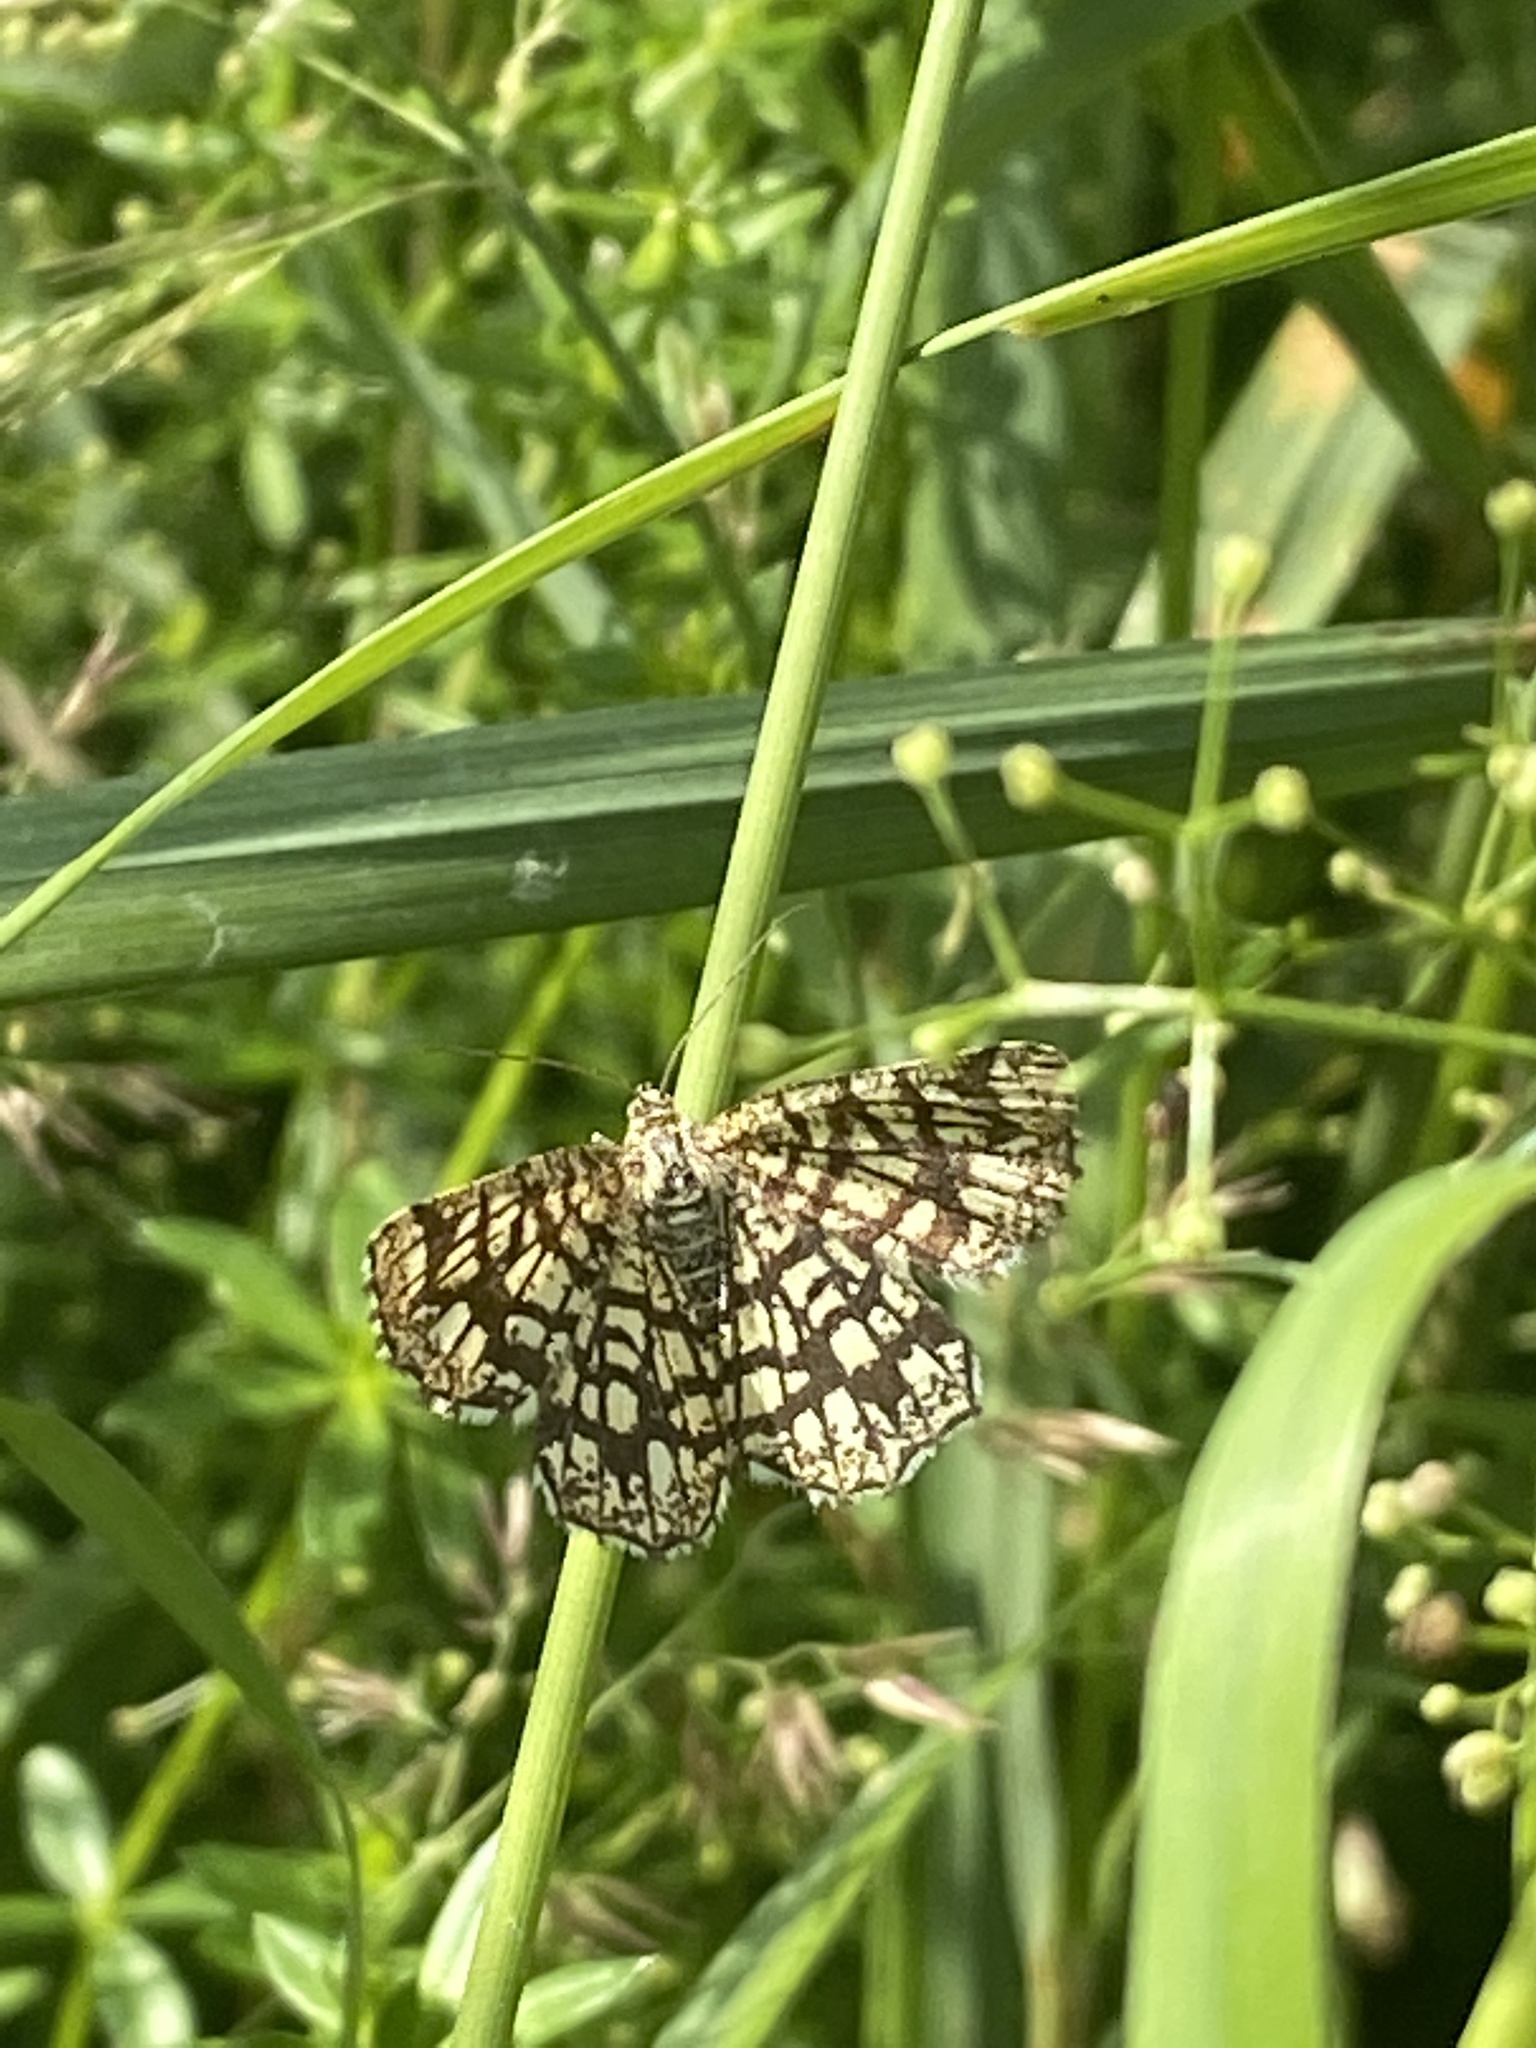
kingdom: Animalia
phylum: Arthropoda
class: Insecta
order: Lepidoptera
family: Geometridae
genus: Chiasmia
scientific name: Chiasmia clathrata
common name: Latticed heath
